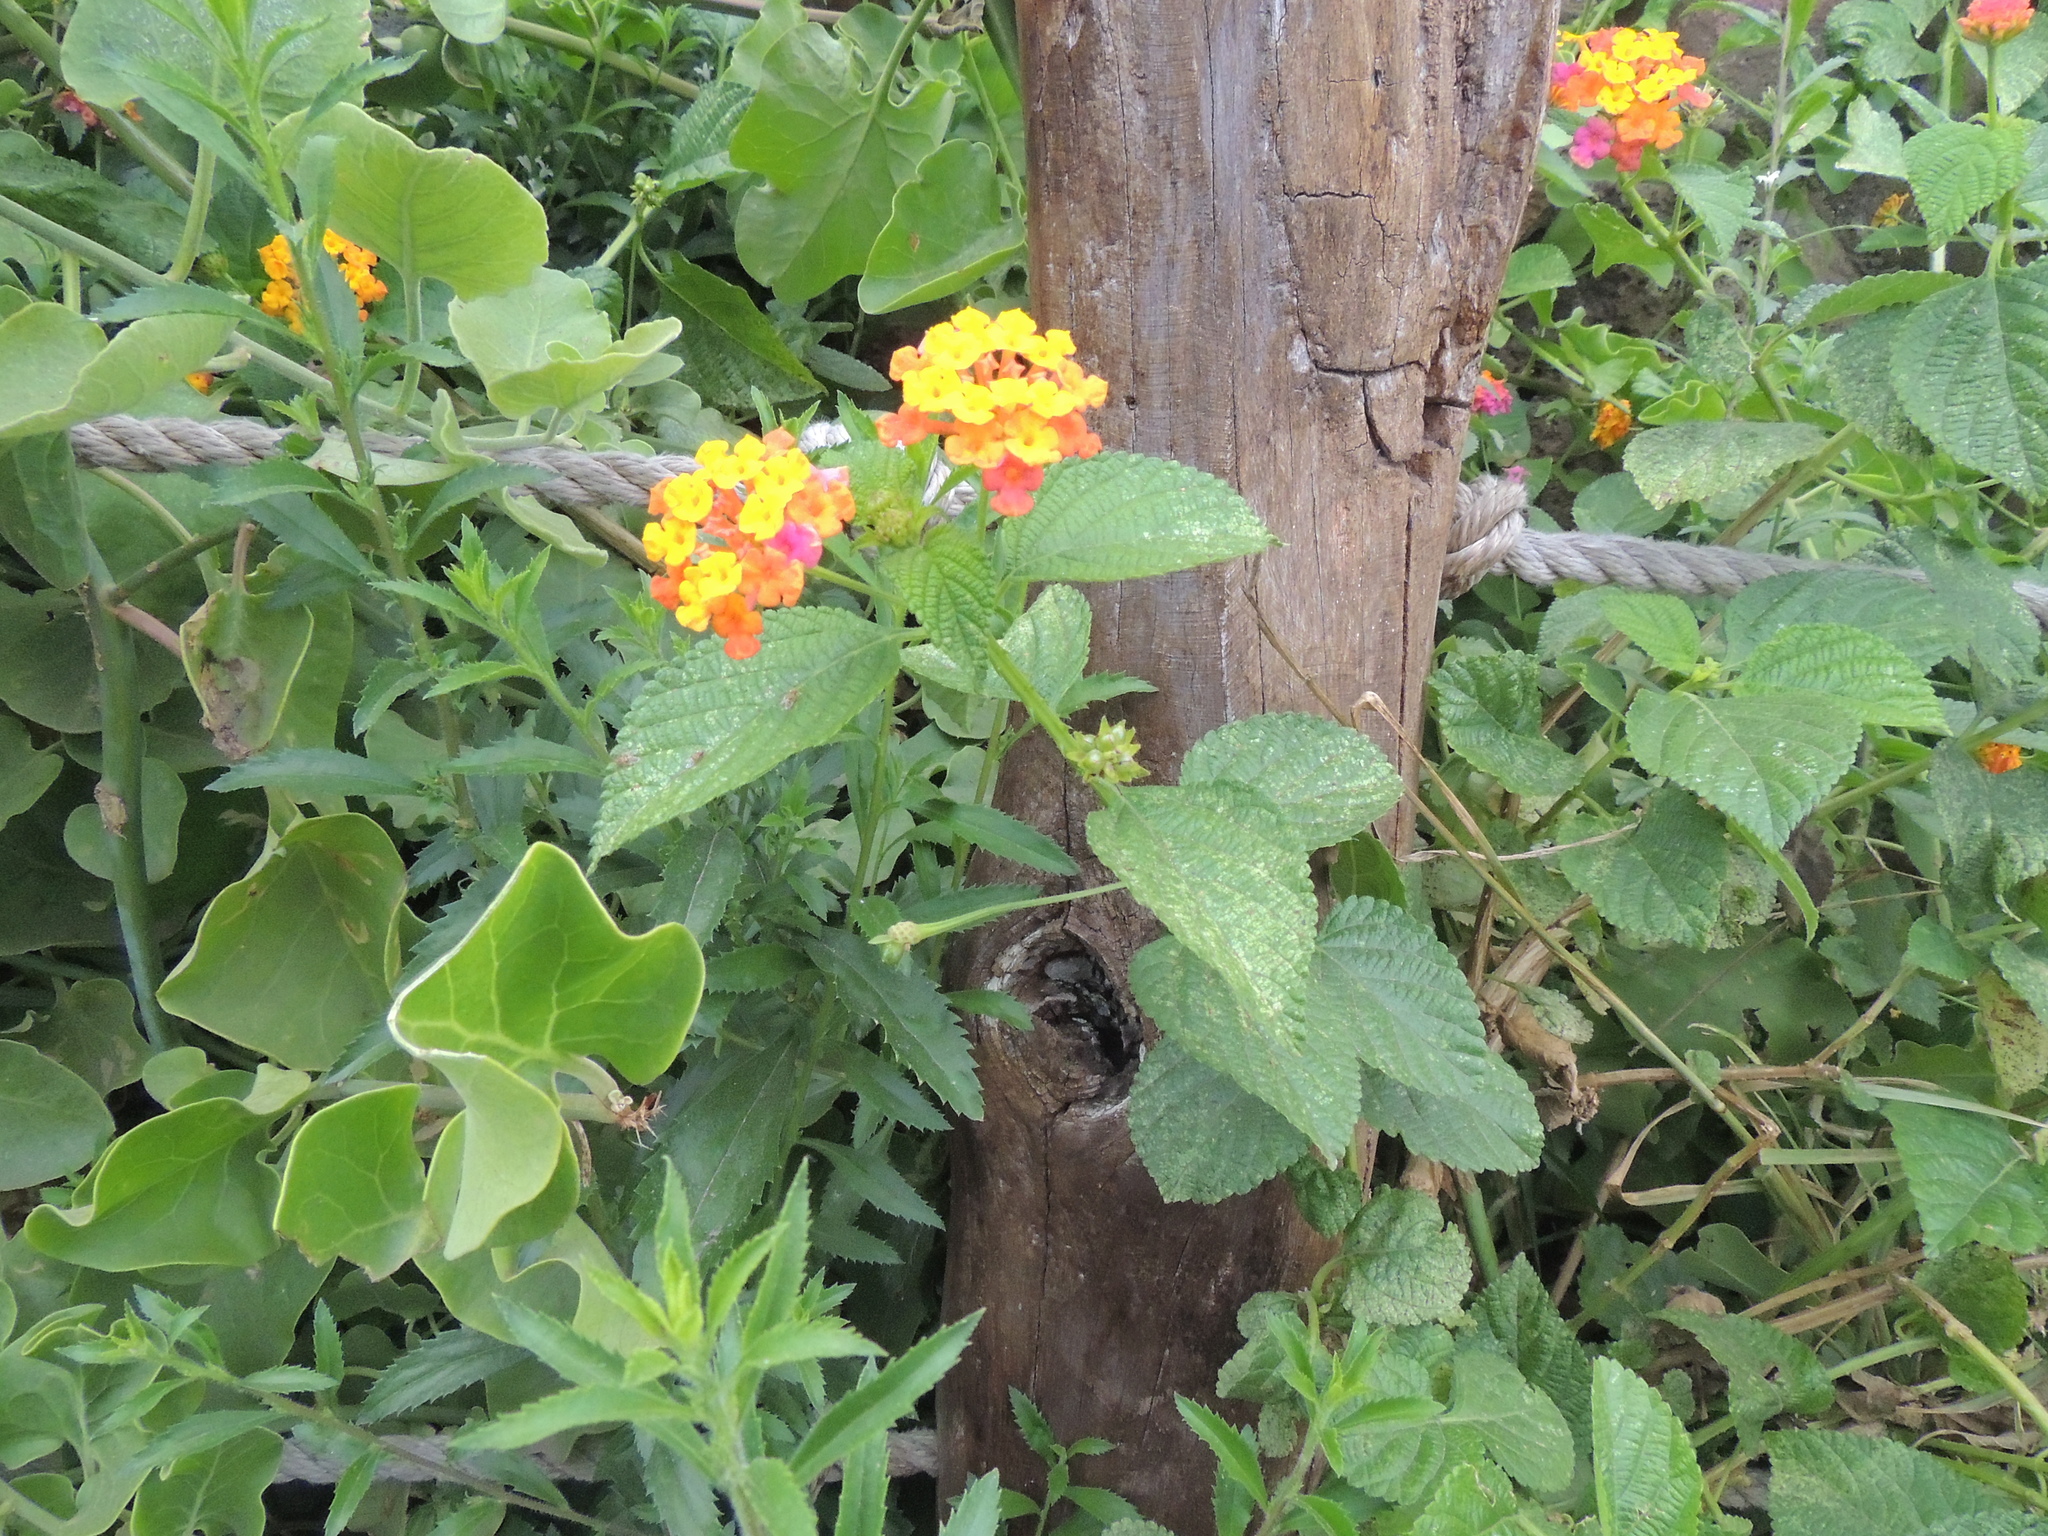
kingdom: Plantae
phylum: Tracheophyta
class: Magnoliopsida
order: Lamiales
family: Verbenaceae
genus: Lantana
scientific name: Lantana camara
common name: Lantana
